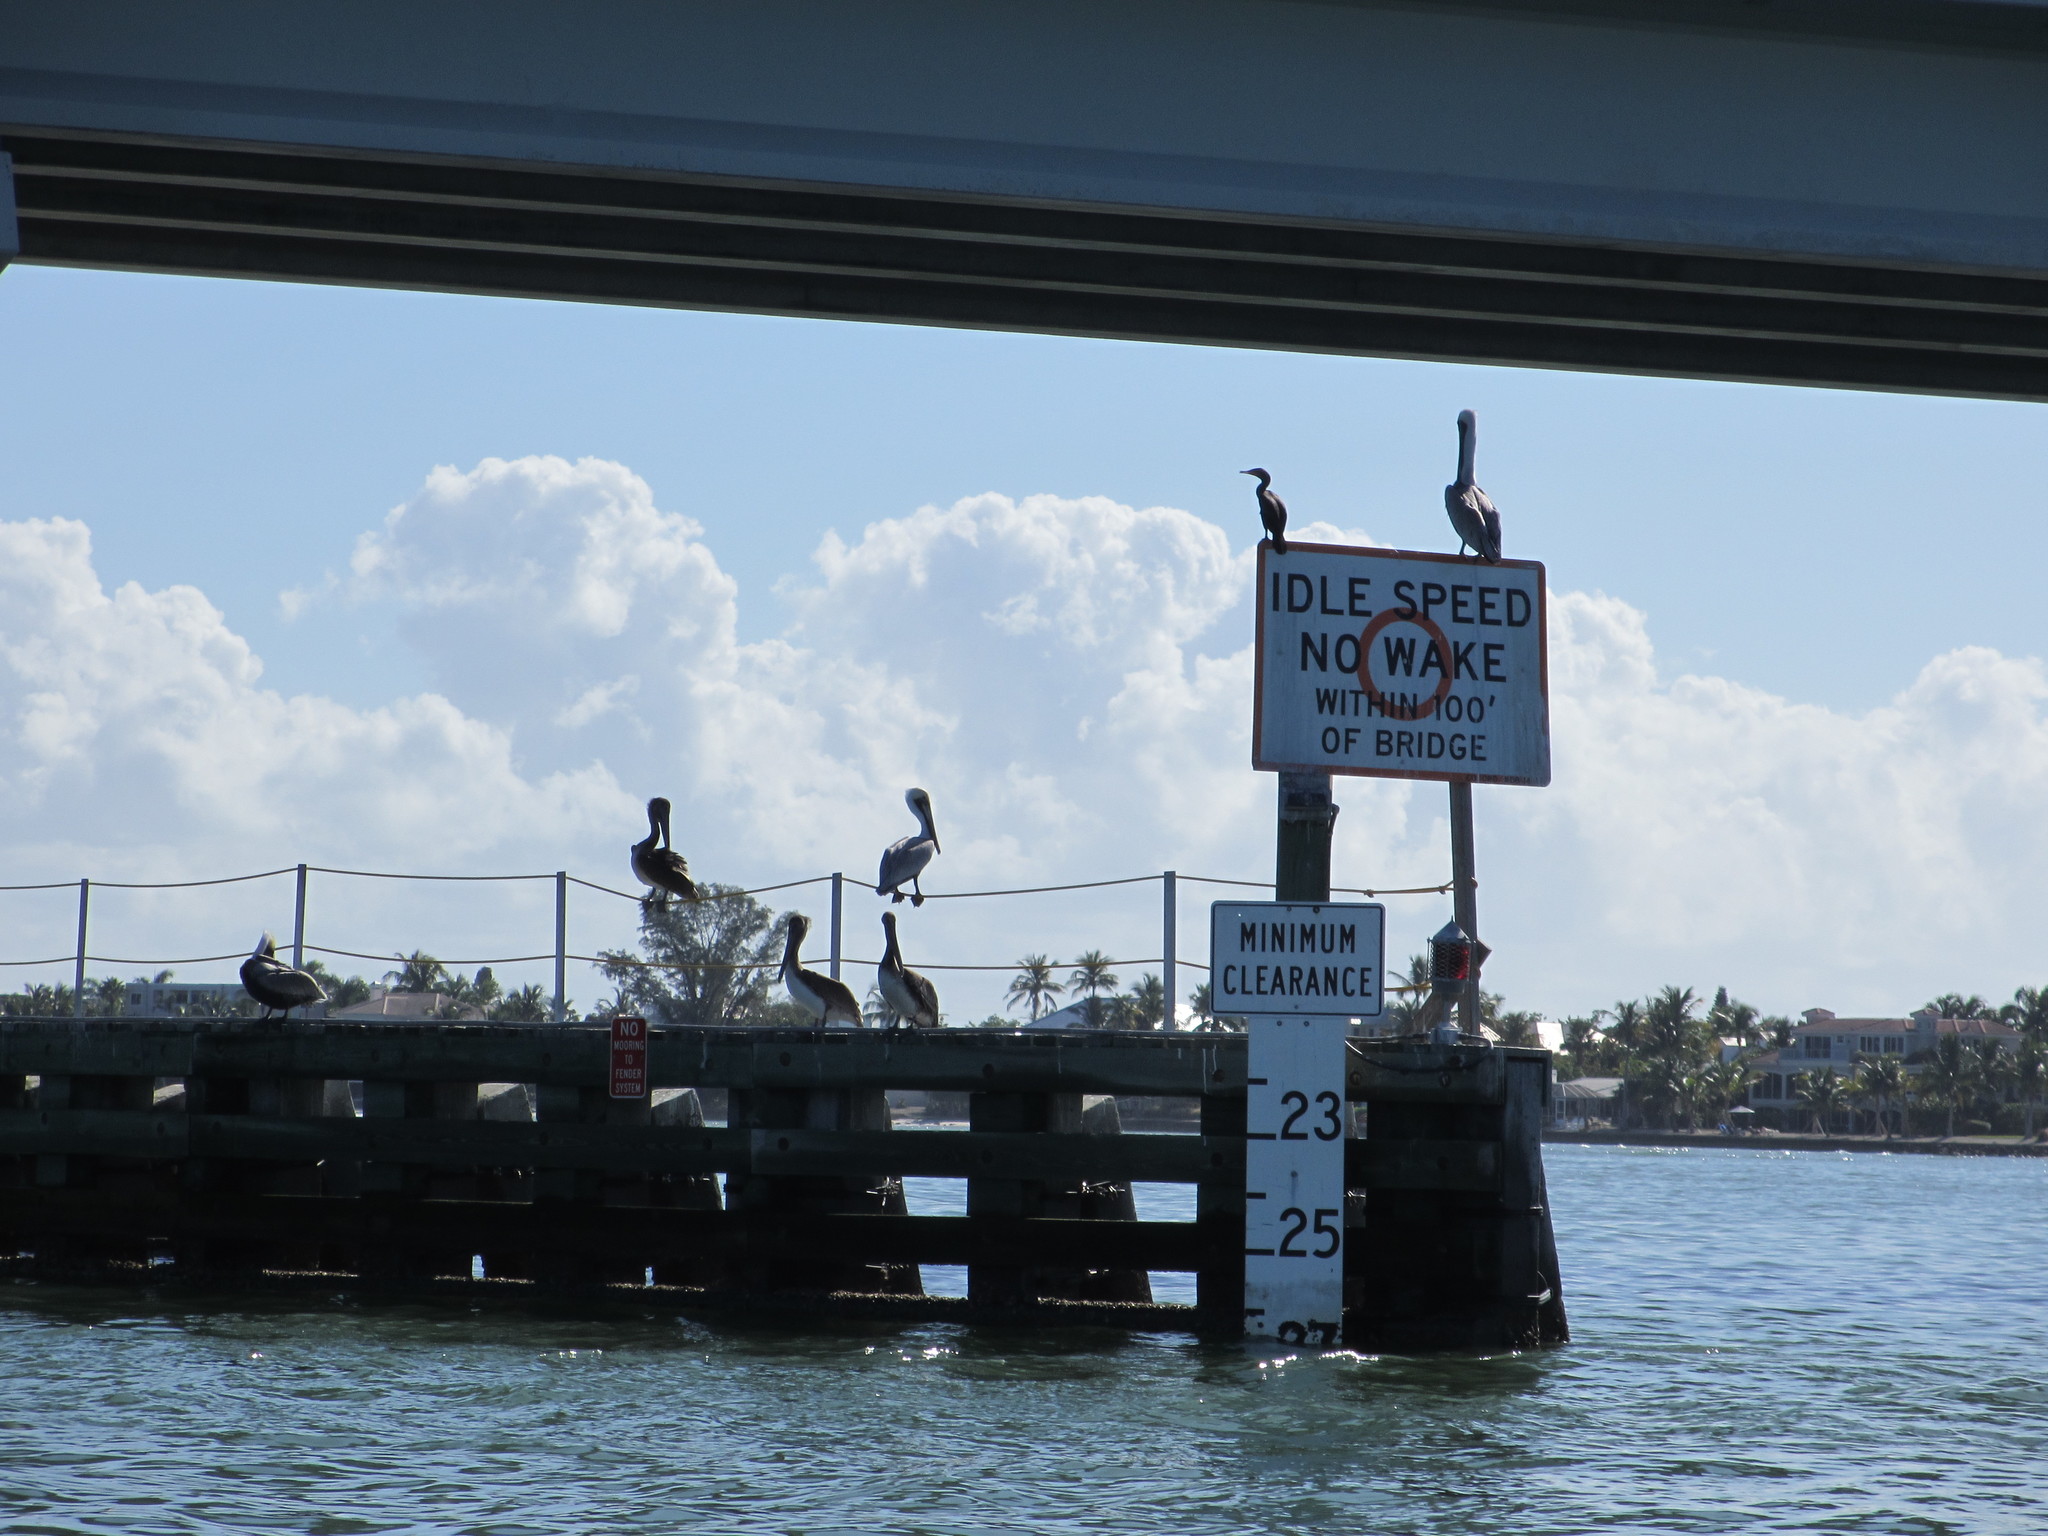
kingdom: Animalia
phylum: Chordata
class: Aves
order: Pelecaniformes
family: Pelecanidae
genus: Pelecanus
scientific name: Pelecanus occidentalis
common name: Brown pelican
